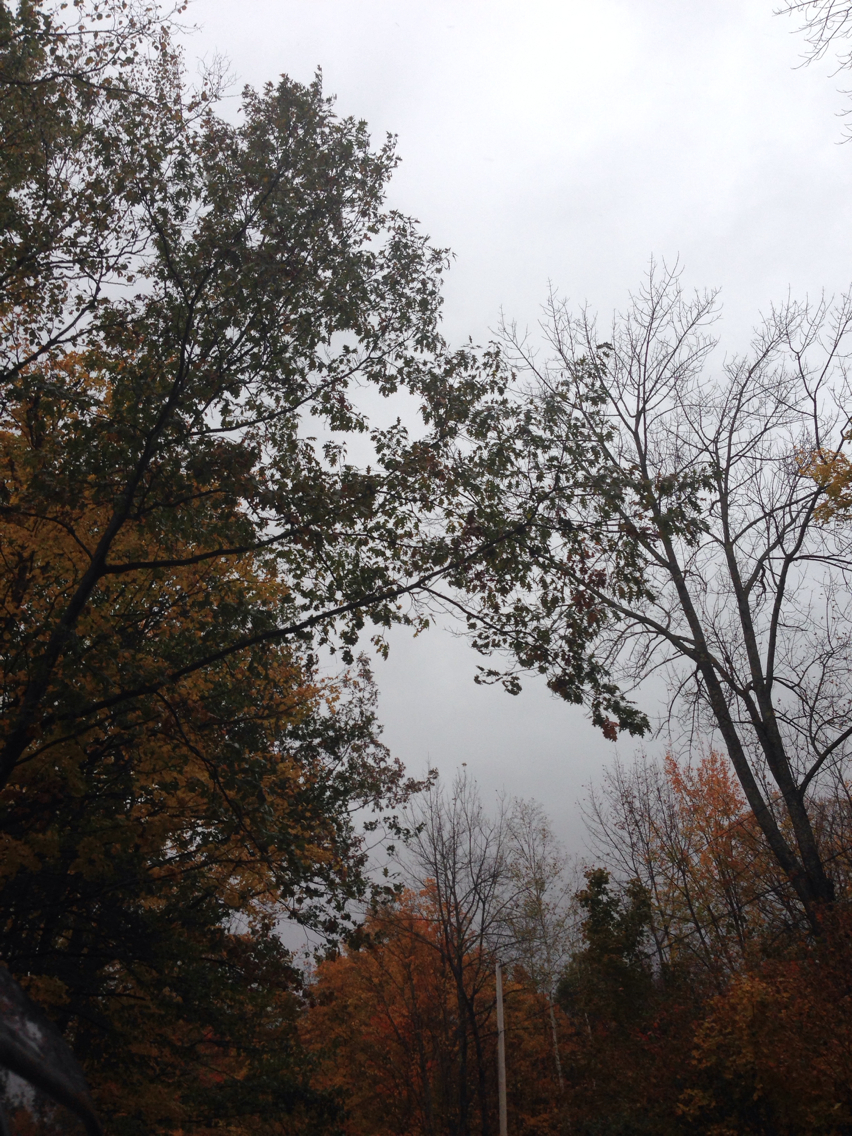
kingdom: Plantae
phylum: Tracheophyta
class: Magnoliopsida
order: Fagales
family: Fagaceae
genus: Quercus
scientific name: Quercus rubra
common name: Red oak
